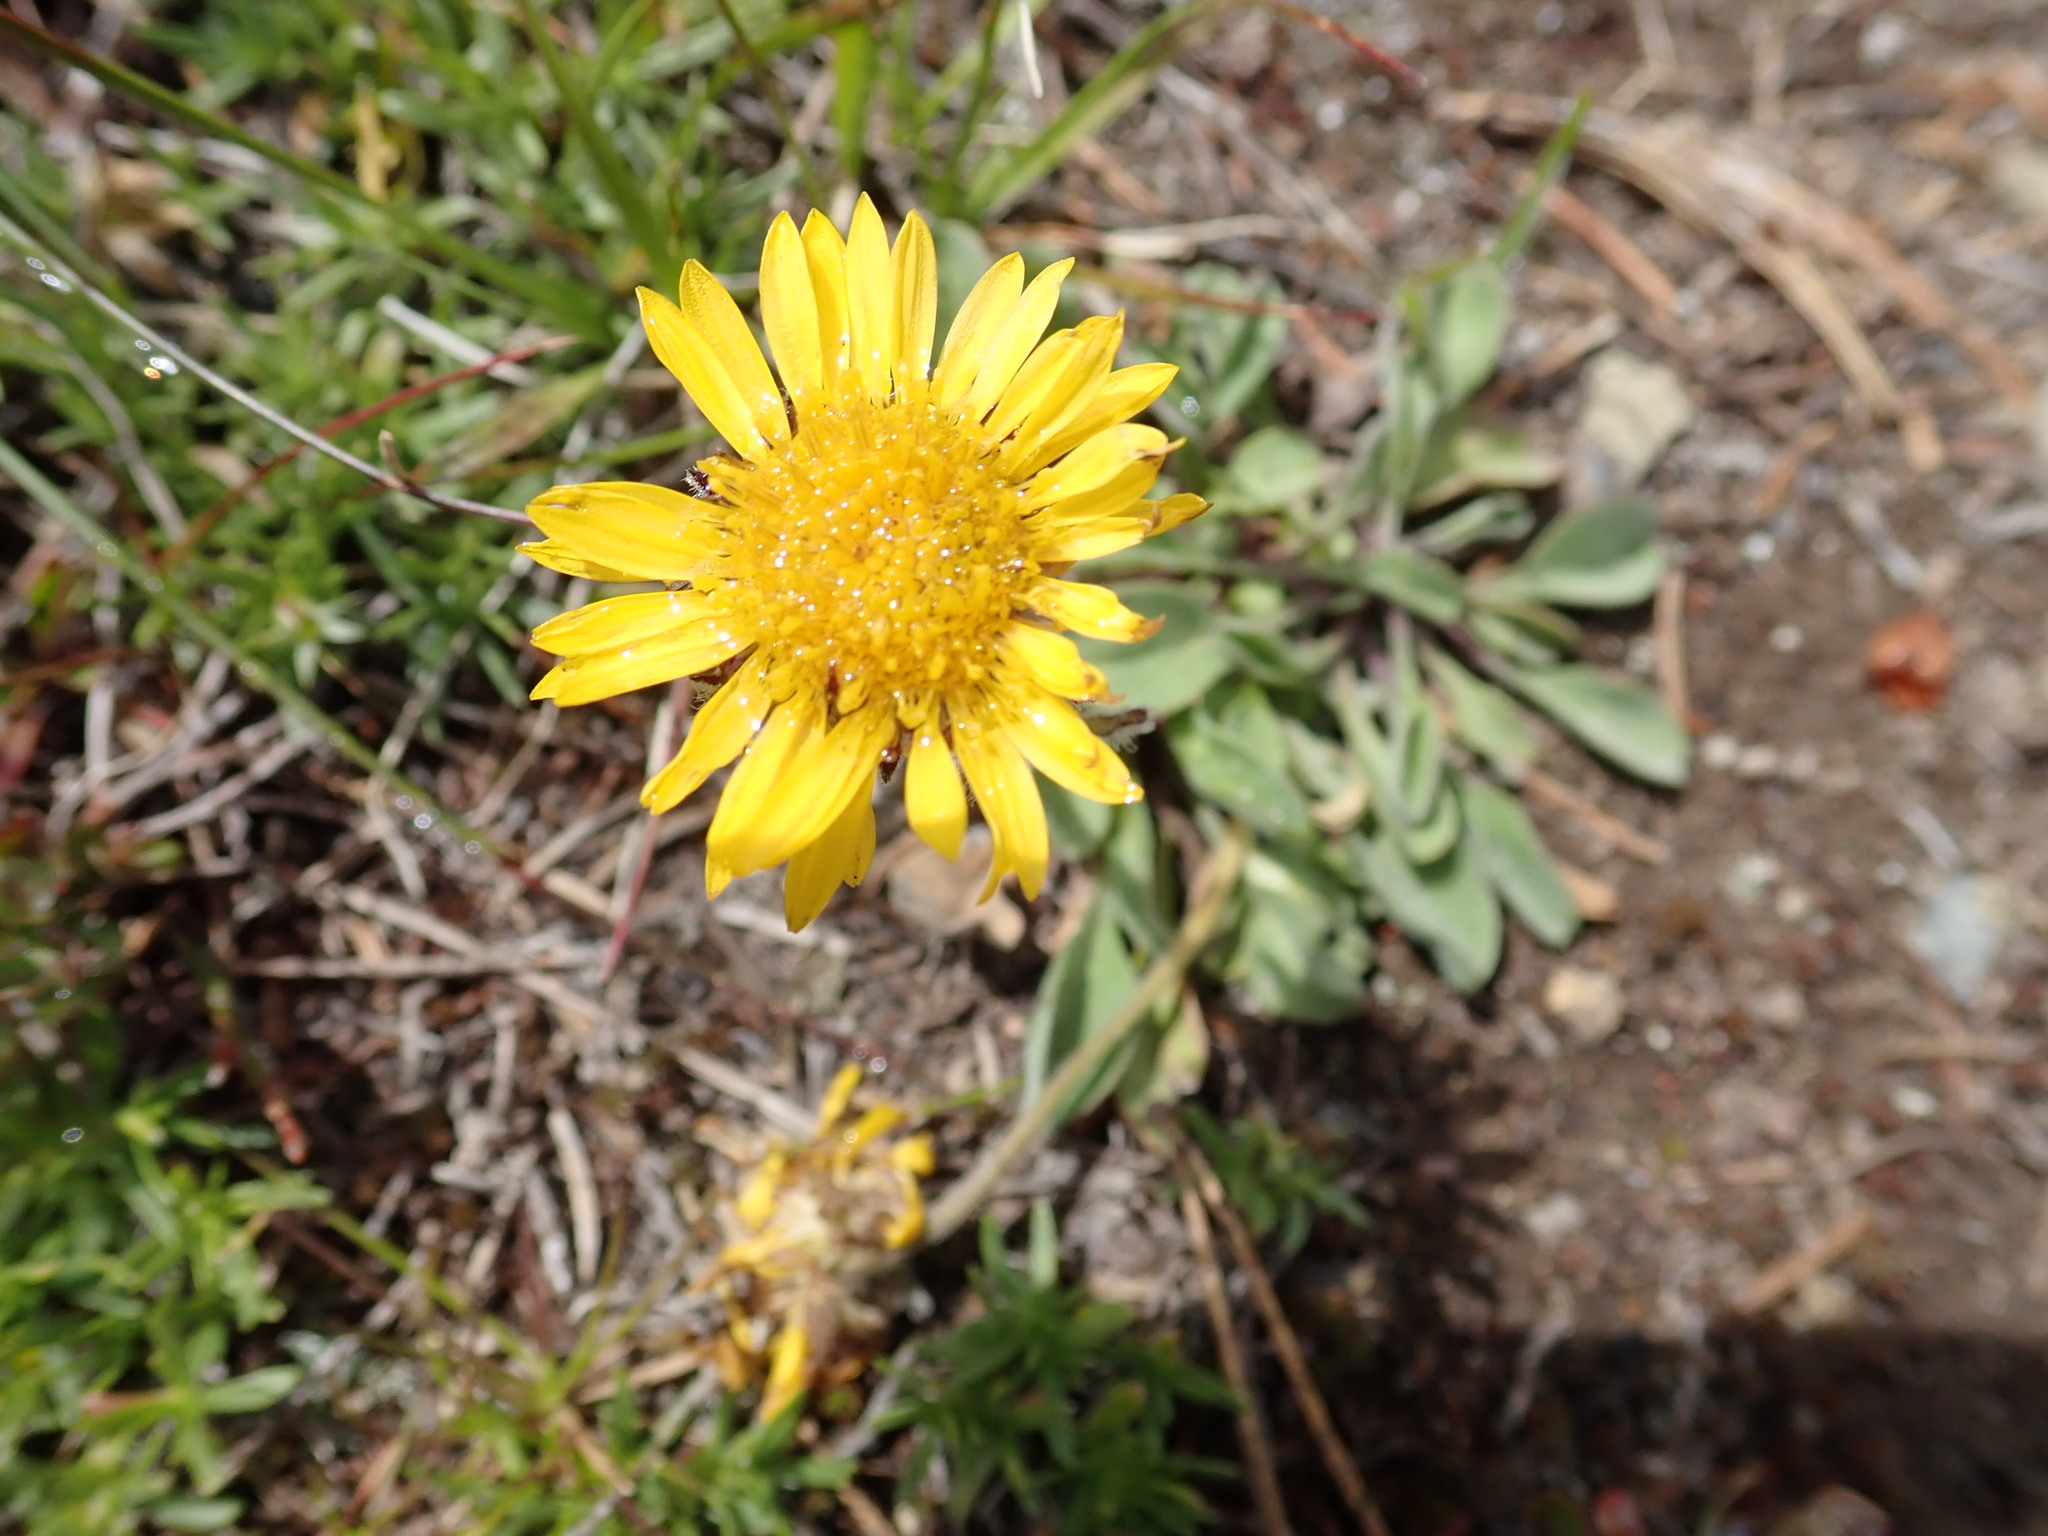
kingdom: Plantae
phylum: Tracheophyta
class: Magnoliopsida
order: Asterales
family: Asteraceae
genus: Erigeron
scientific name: Erigeron aureus
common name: Alpine yellow fleabane
